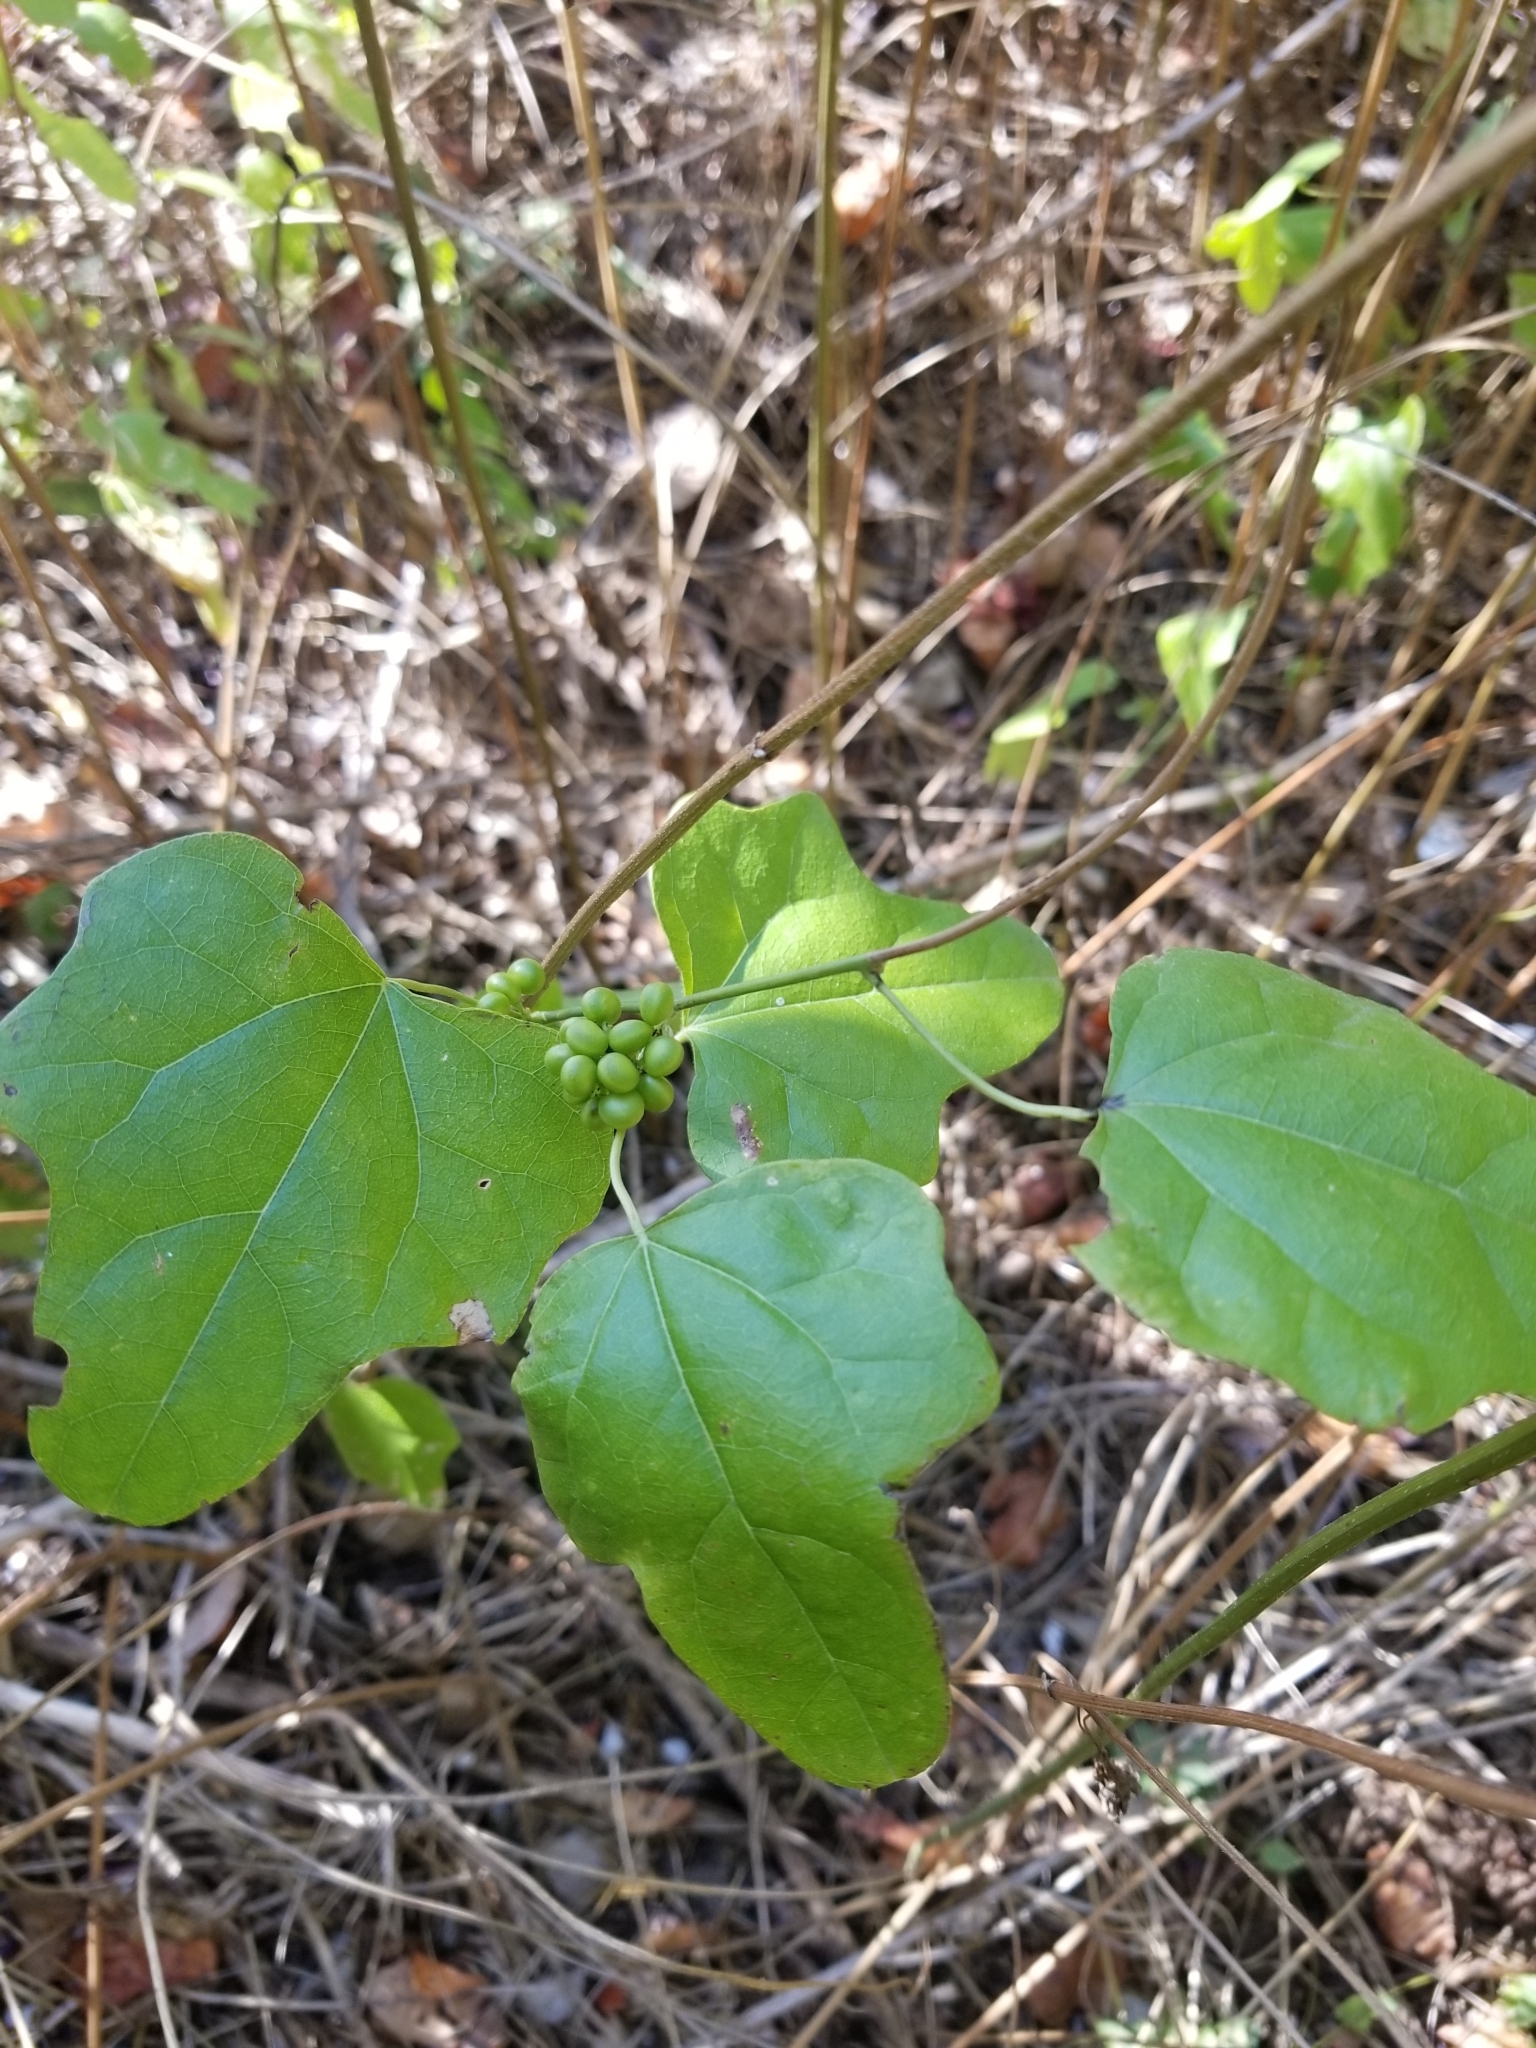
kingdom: Plantae
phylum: Tracheophyta
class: Magnoliopsida
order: Ranunculales
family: Menispermaceae
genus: Cocculus
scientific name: Cocculus carolinus
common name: Carolina moonseed
